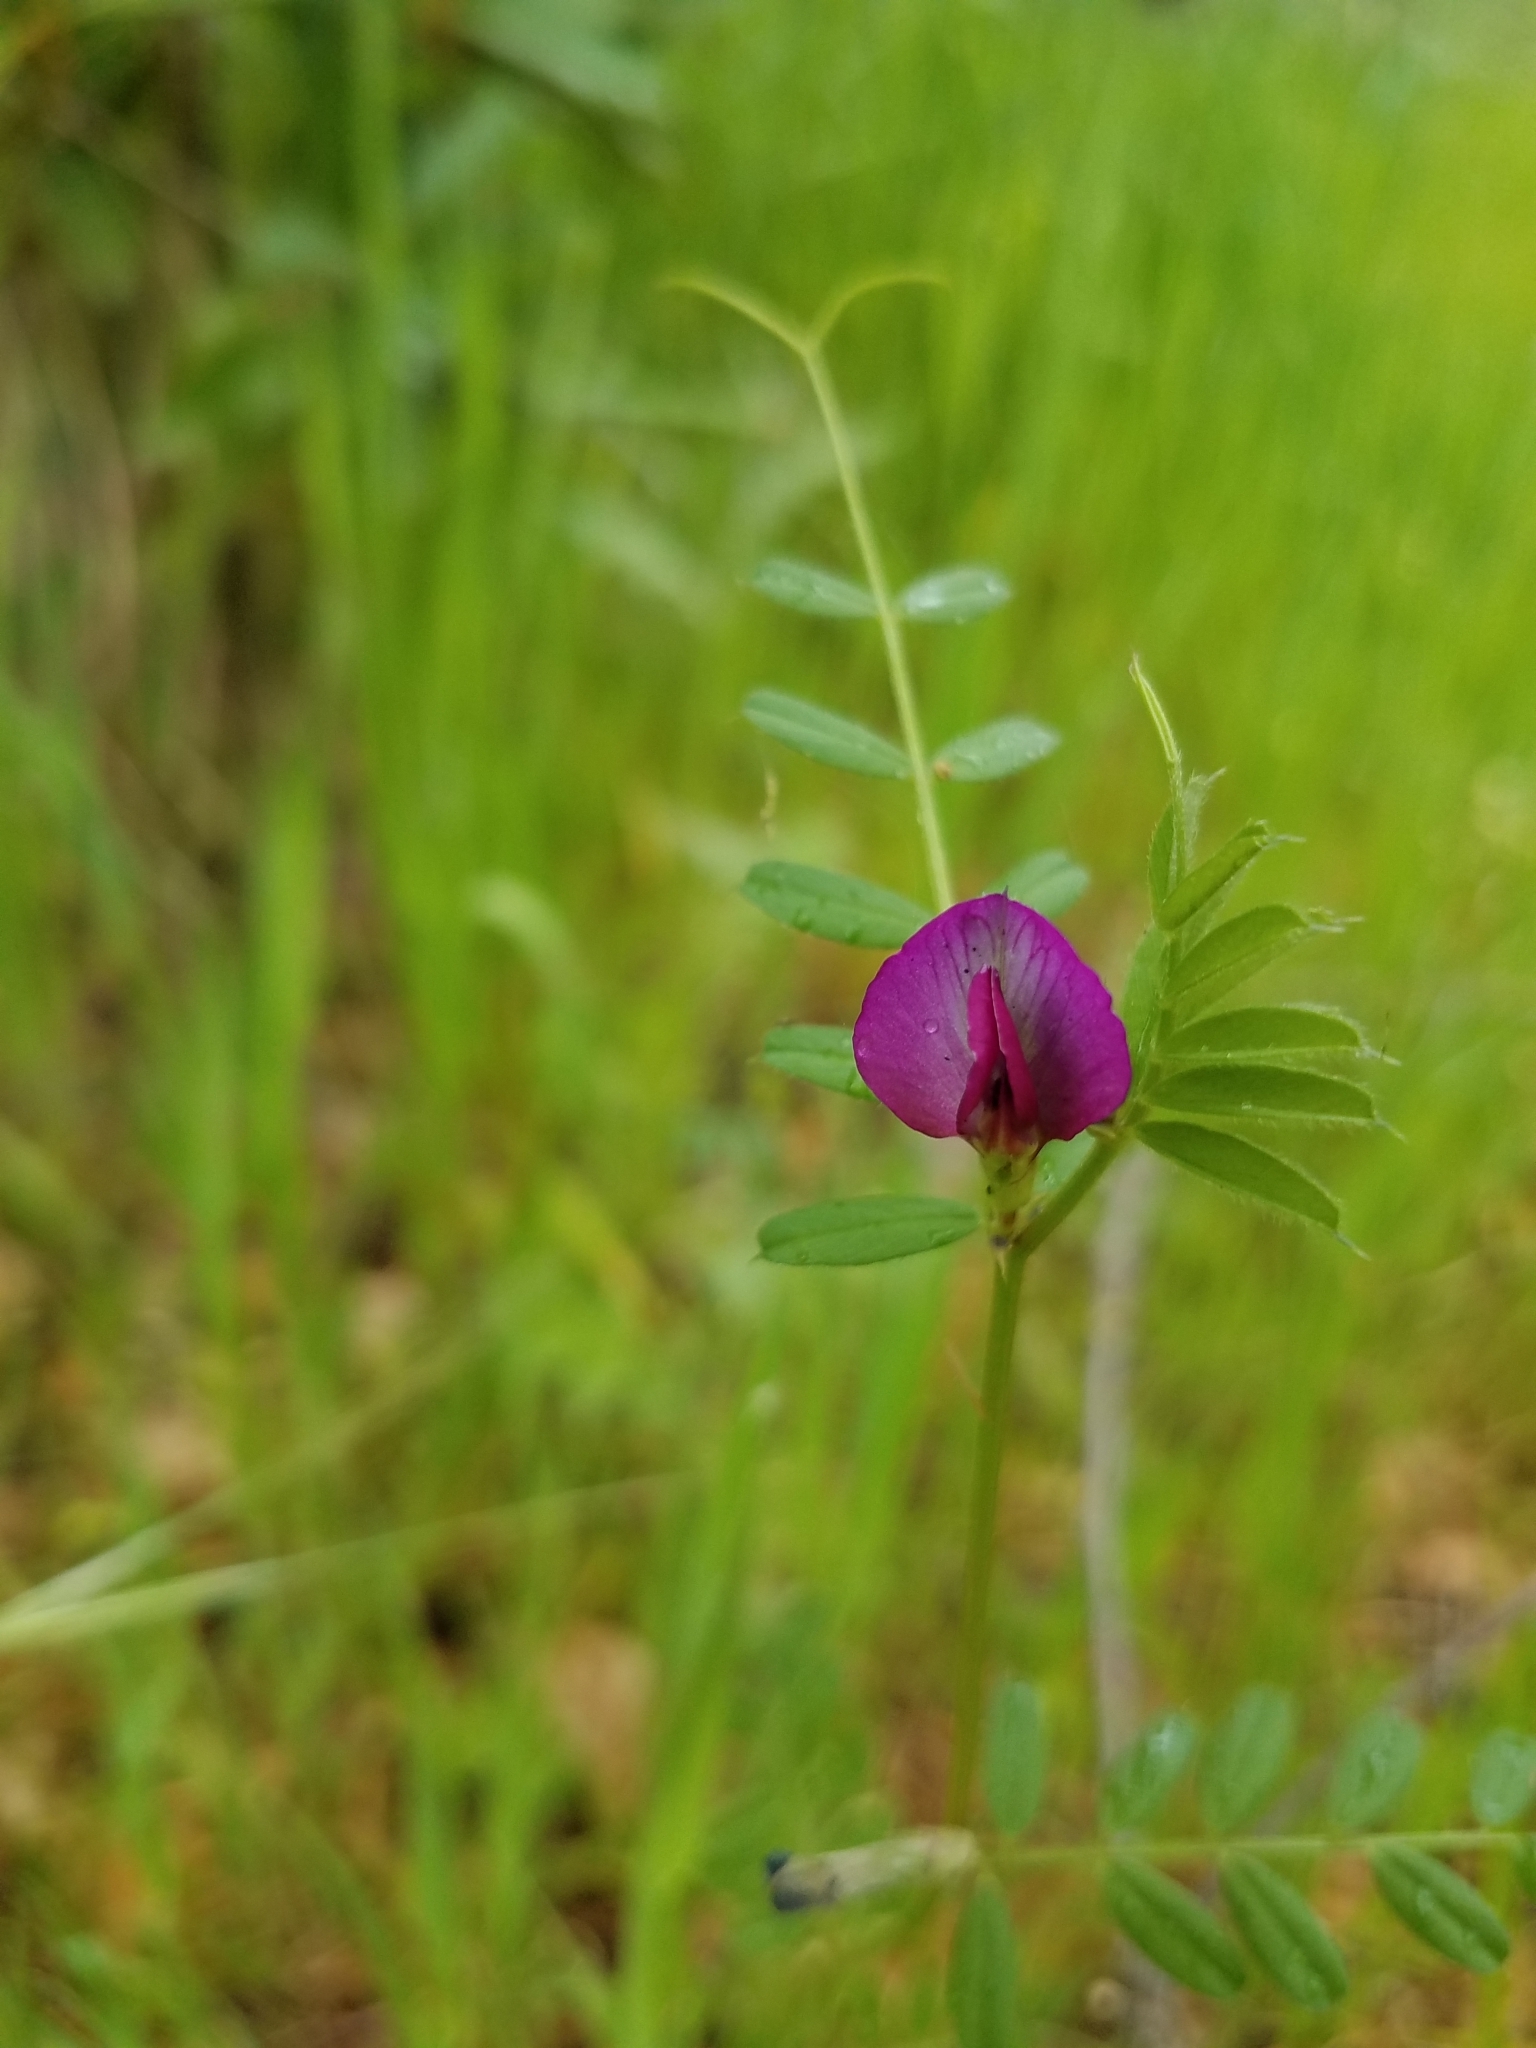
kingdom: Plantae
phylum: Tracheophyta
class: Magnoliopsida
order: Fabales
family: Fabaceae
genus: Vicia
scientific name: Vicia sativa
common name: Garden vetch
